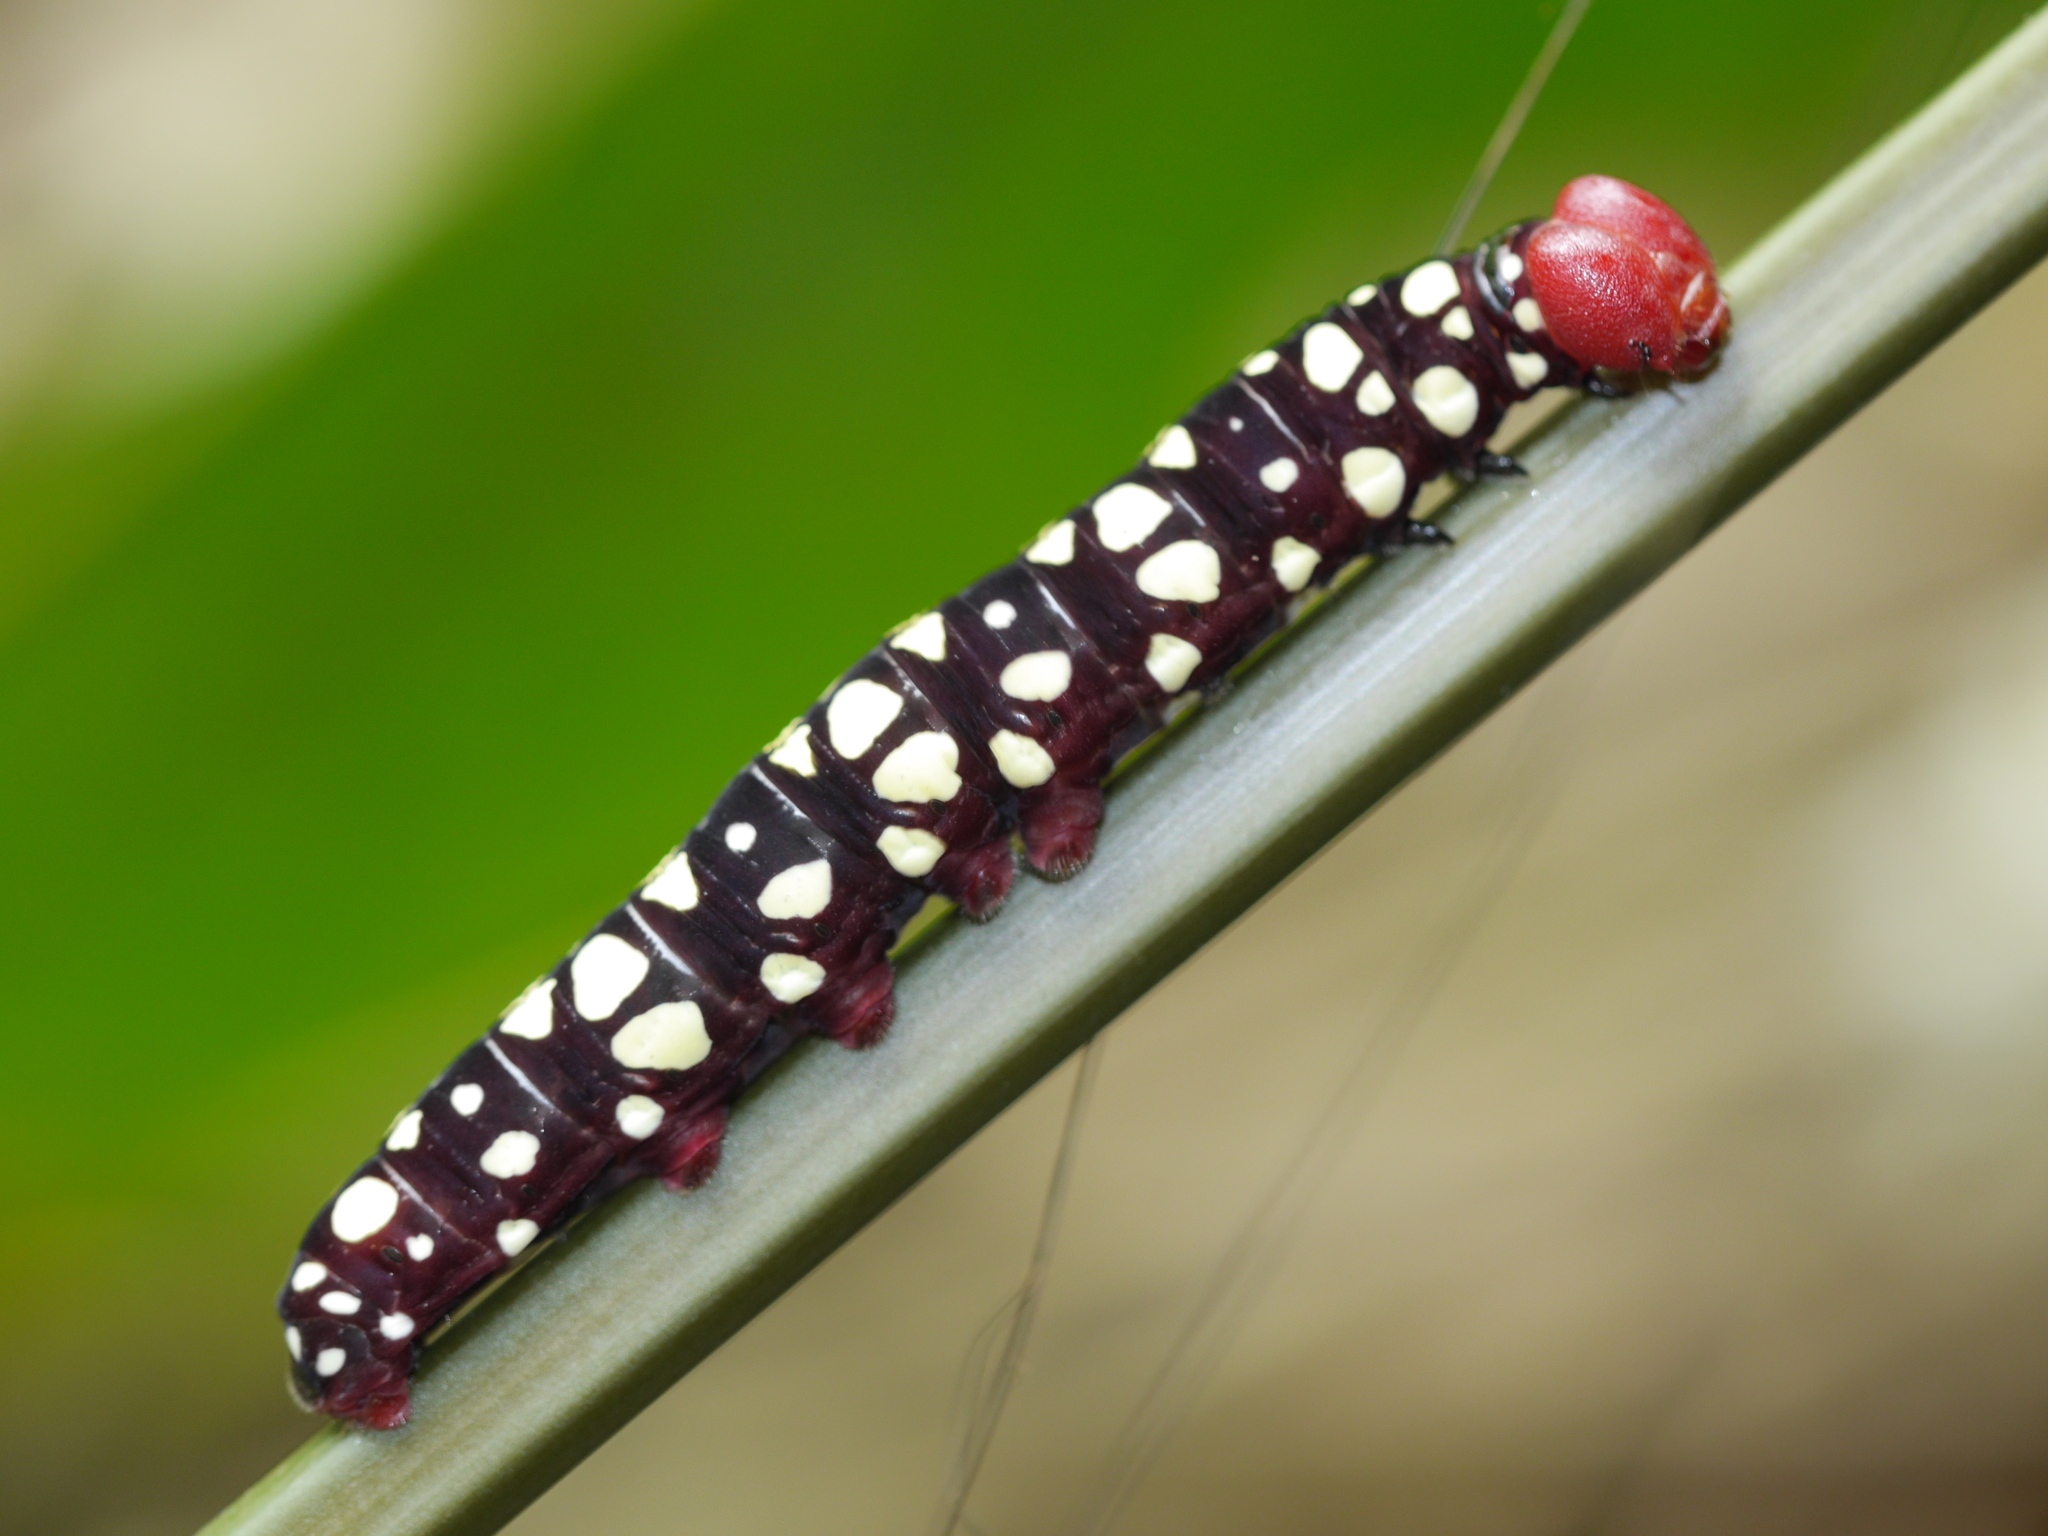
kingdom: Animalia
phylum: Arthropoda
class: Insecta
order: Lepidoptera
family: Hesperiidae
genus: Pyrrhochalcia
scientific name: Pyrrhochalcia iphis
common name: African giant skipper
